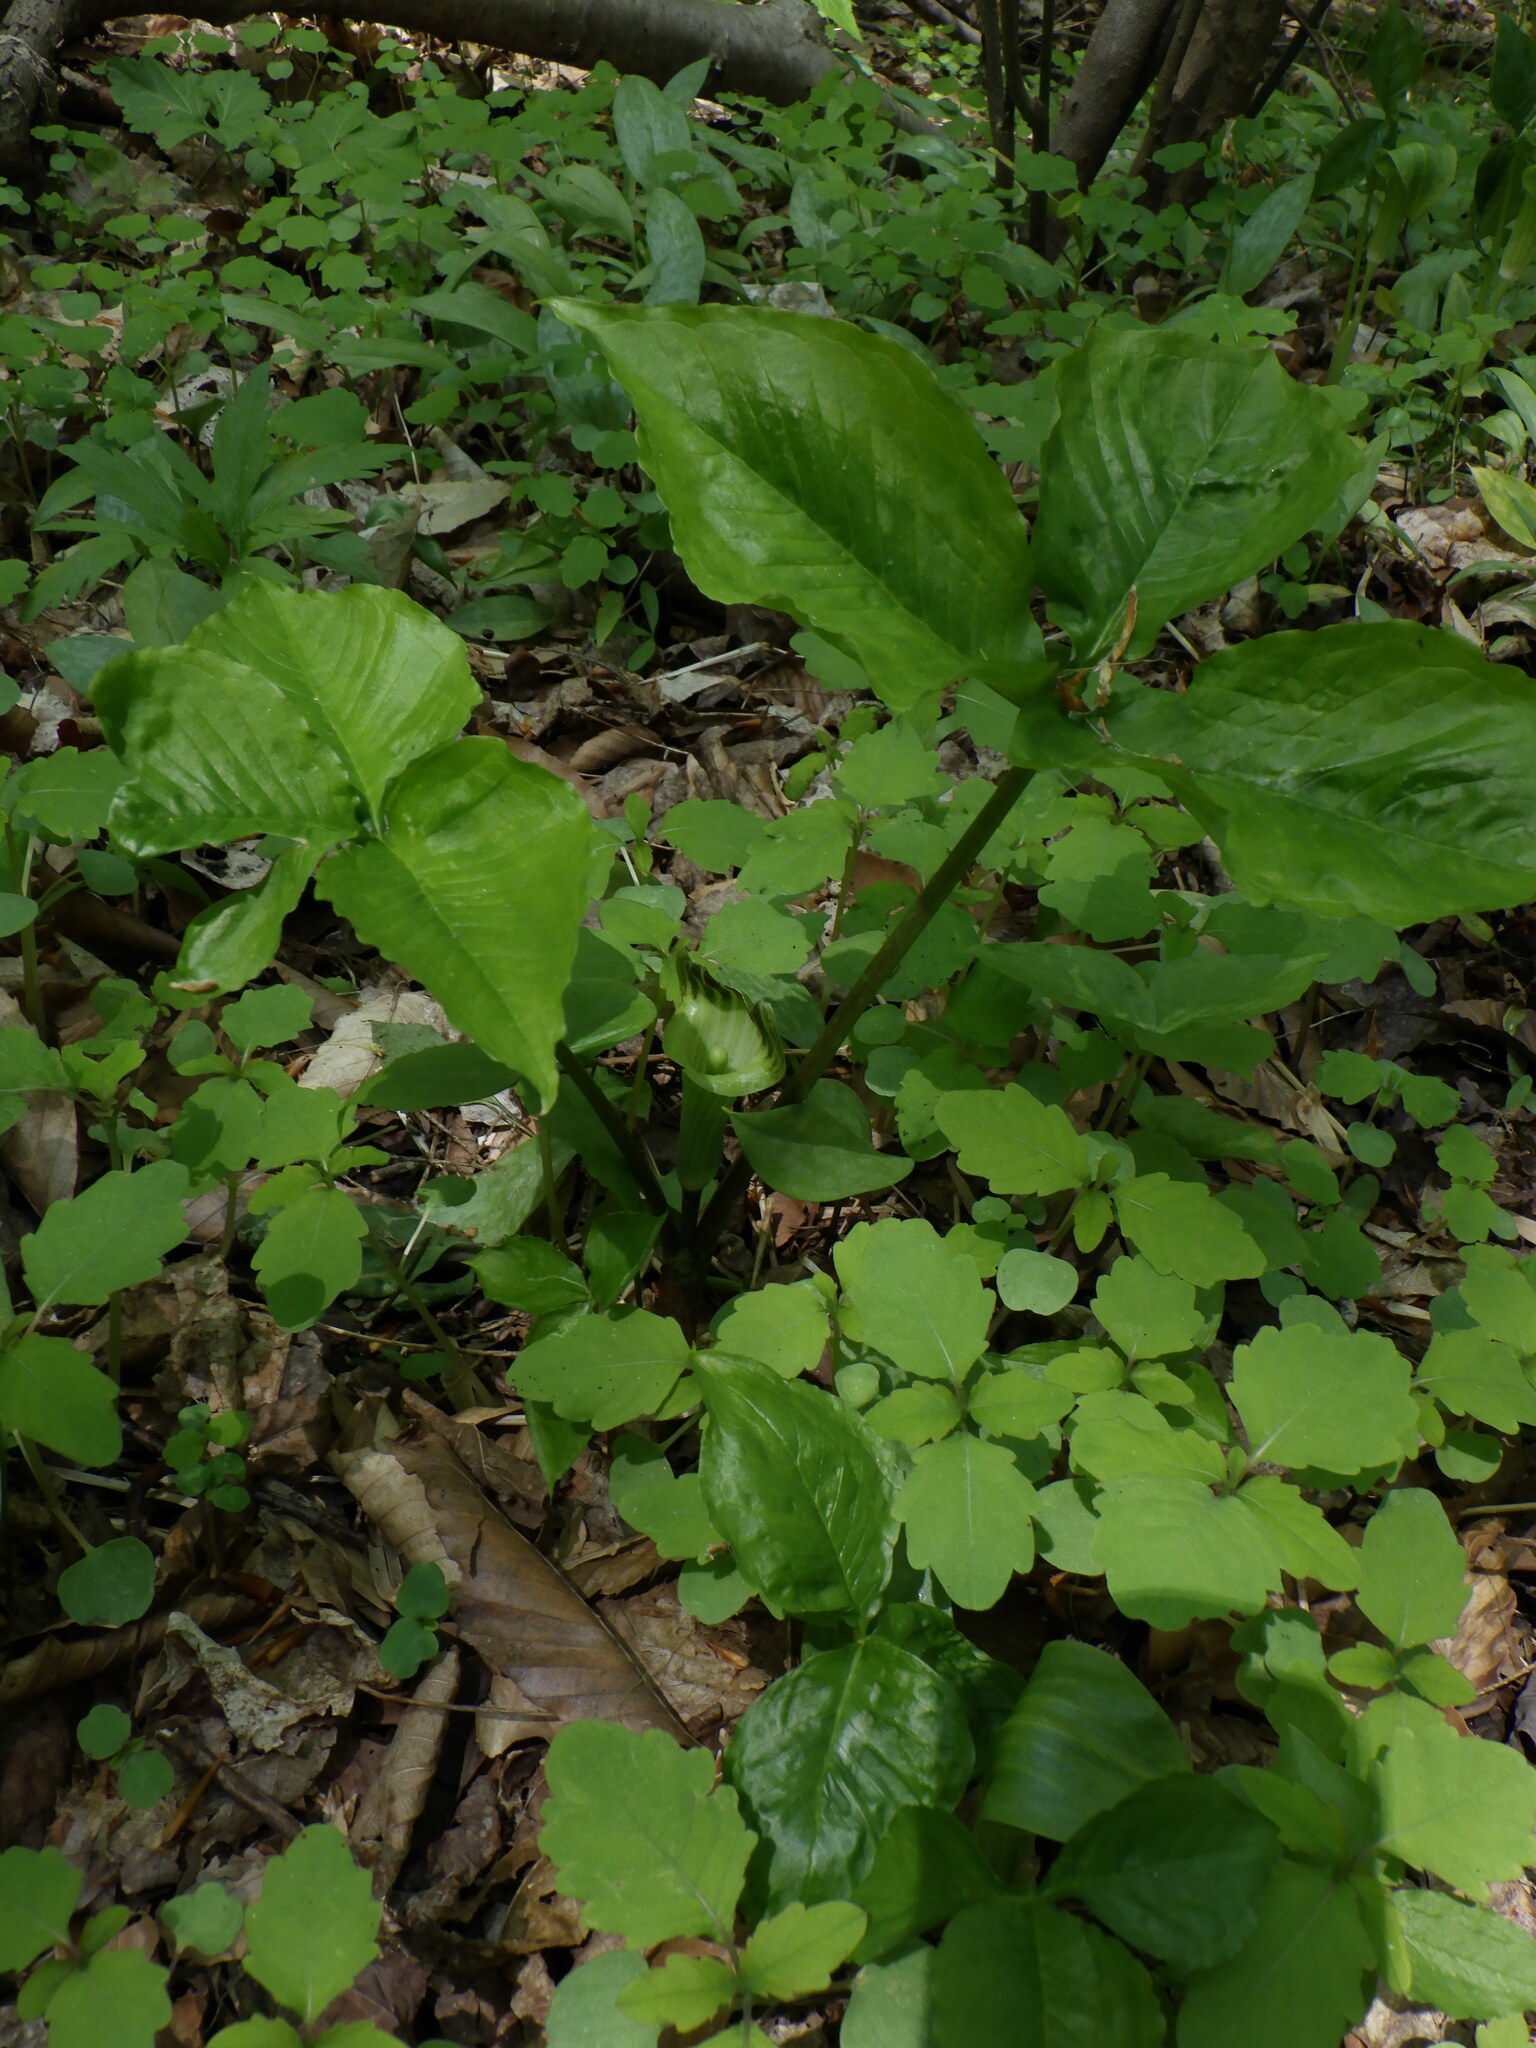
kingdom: Plantae
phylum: Tracheophyta
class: Liliopsida
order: Alismatales
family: Araceae
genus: Arisaema
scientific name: Arisaema triphyllum
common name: Jack-in-the-pulpit
